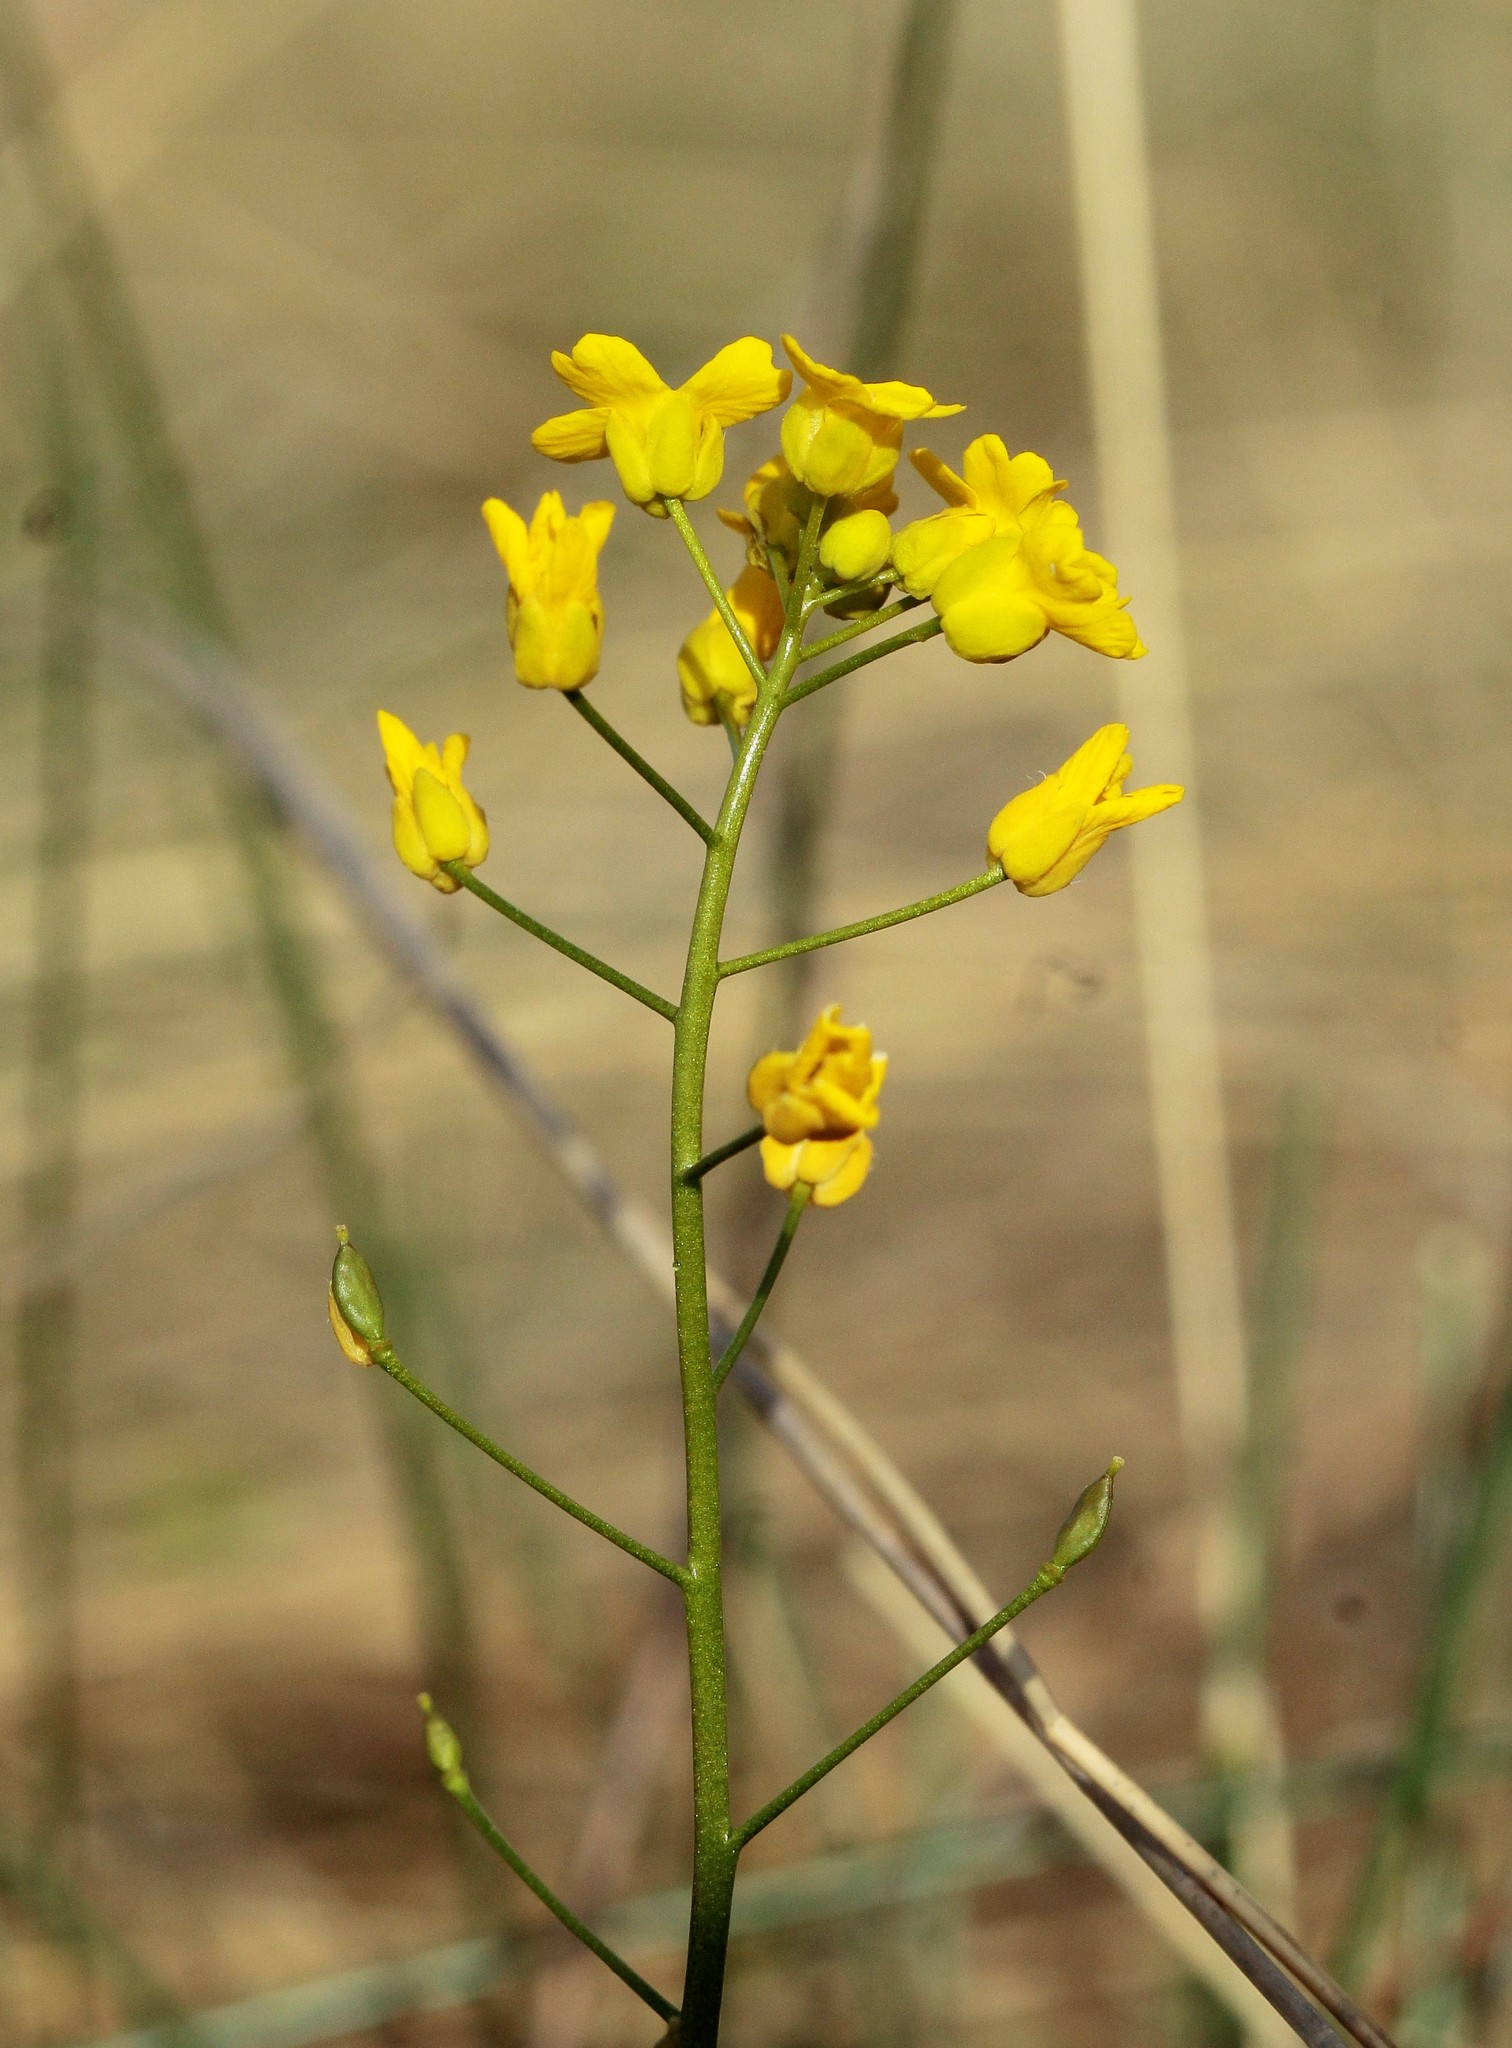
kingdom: Plantae
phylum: Tracheophyta
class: Magnoliopsida
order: Brassicales
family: Brassicaceae
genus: Draba
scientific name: Draba hispida
